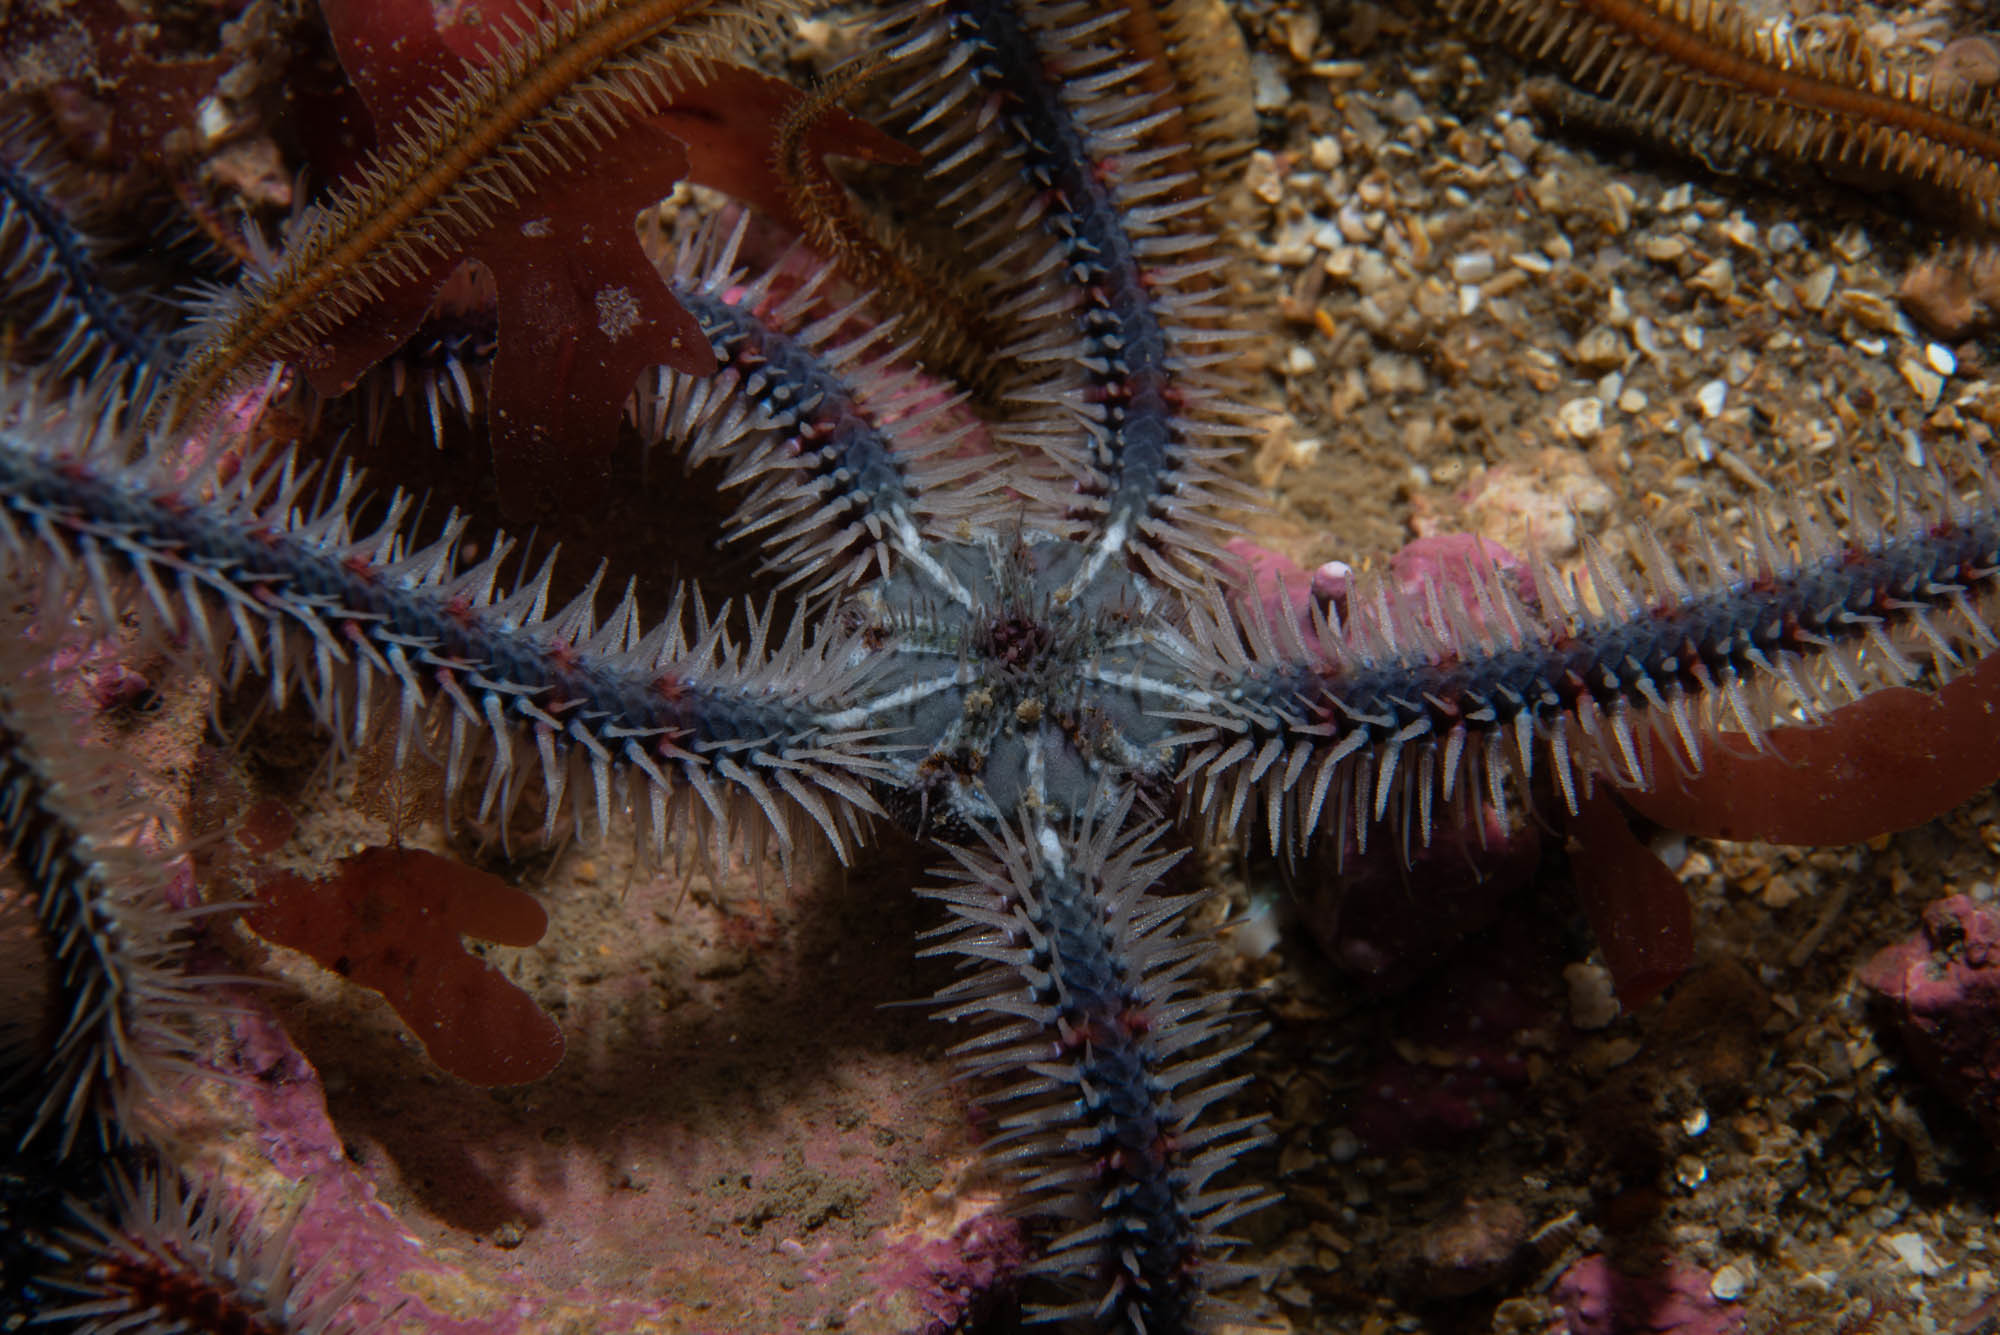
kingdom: Animalia
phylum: Echinodermata
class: Ophiuroidea
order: Amphilepidida
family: Ophiotrichidae
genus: Ophiothrix
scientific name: Ophiothrix fragilis
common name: Common brittlestar
